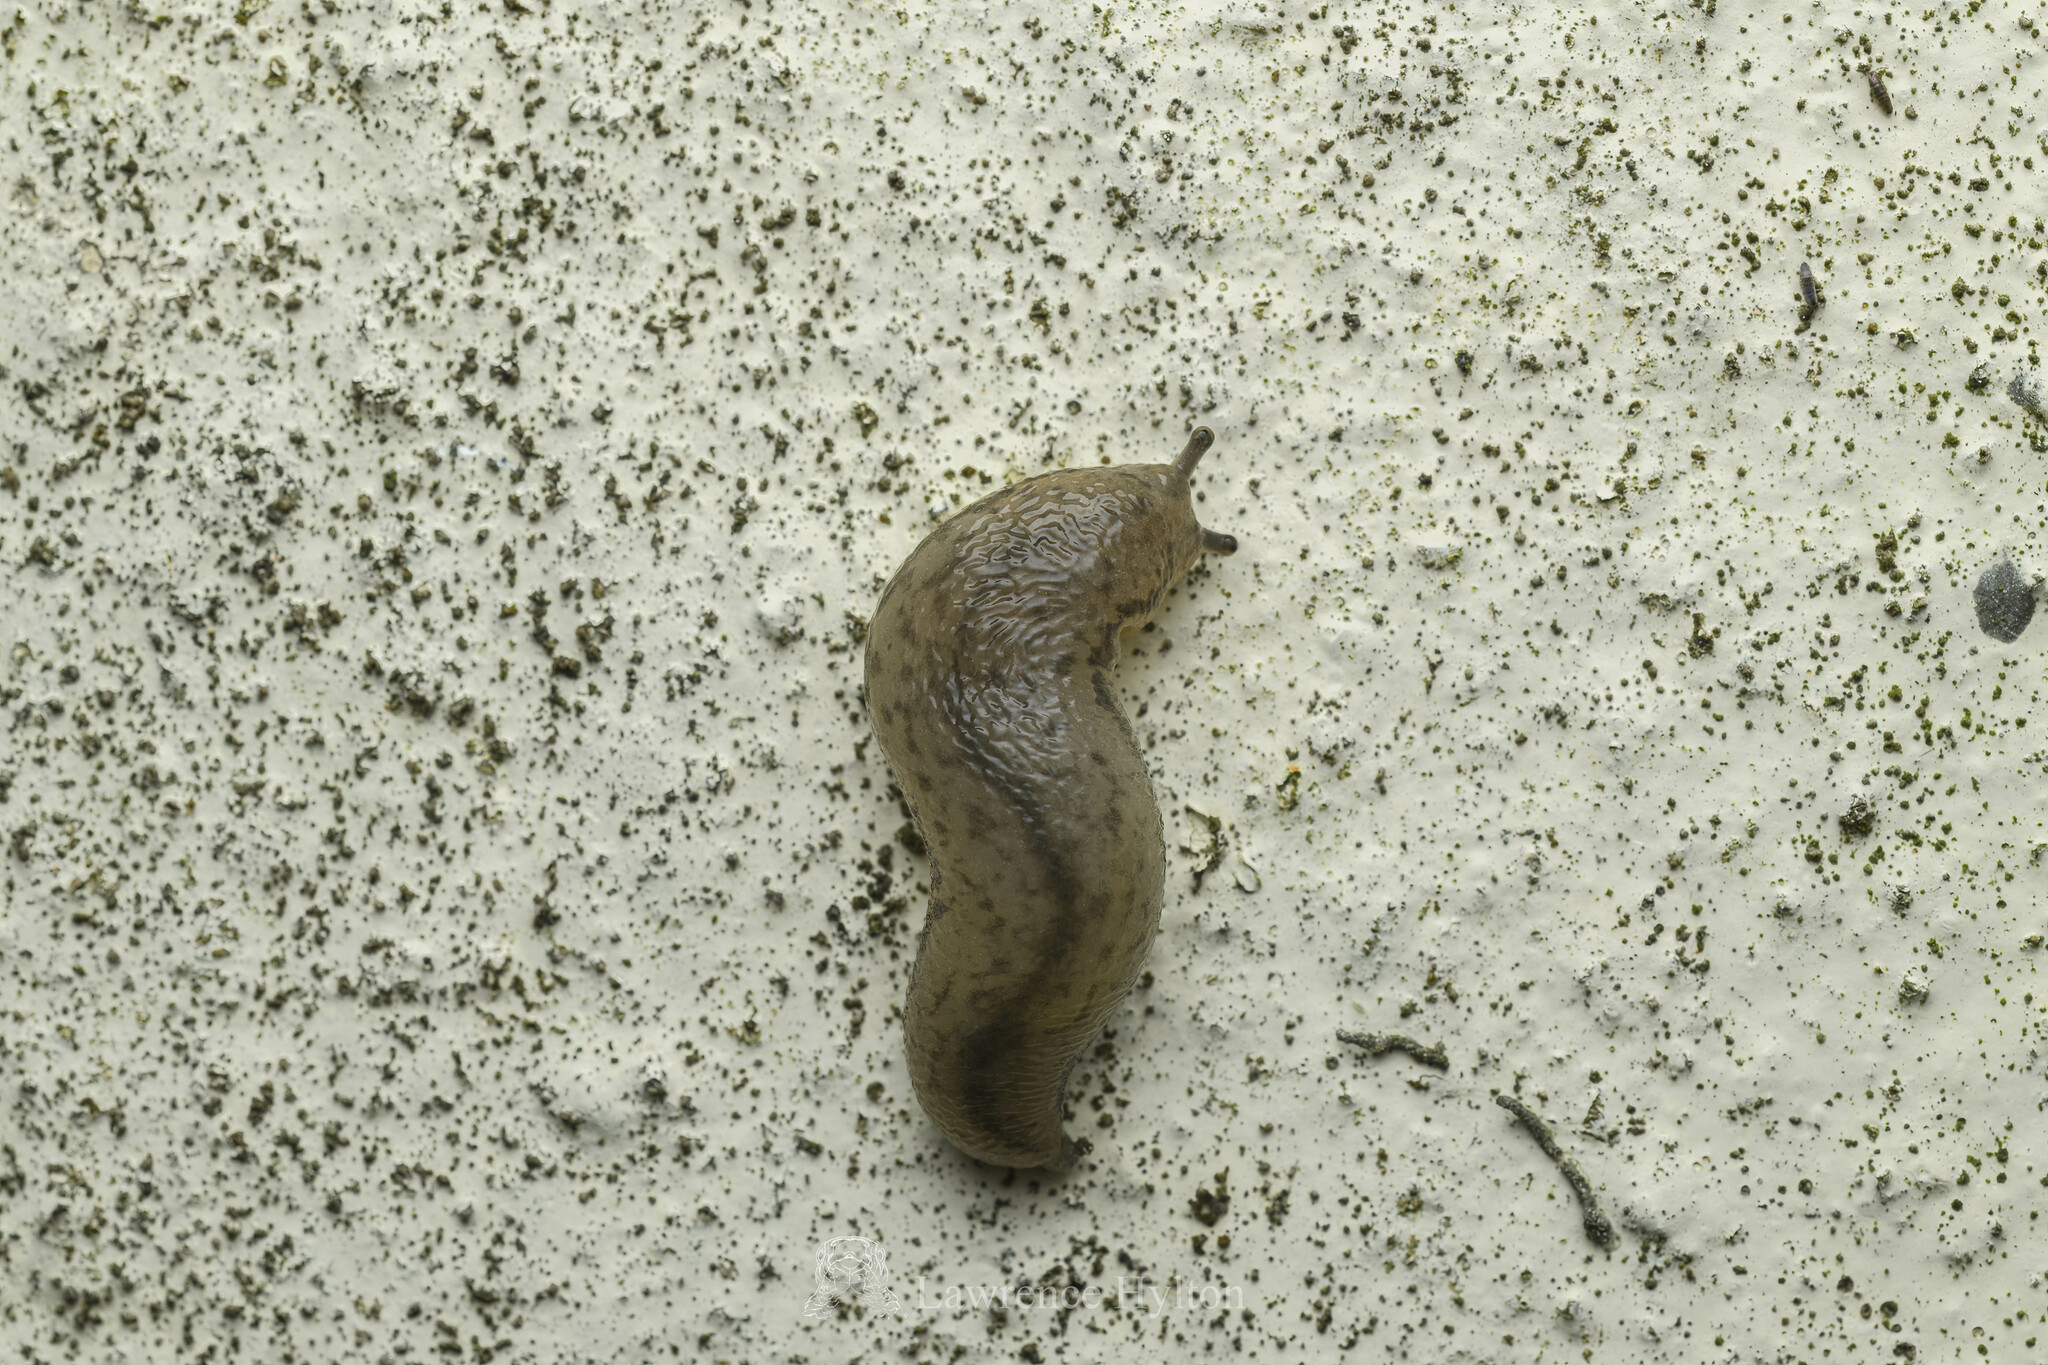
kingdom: Animalia
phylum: Mollusca
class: Gastropoda
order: Stylommatophora
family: Philomycidae
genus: Meghimatium
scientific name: Meghimatium bilineatum
